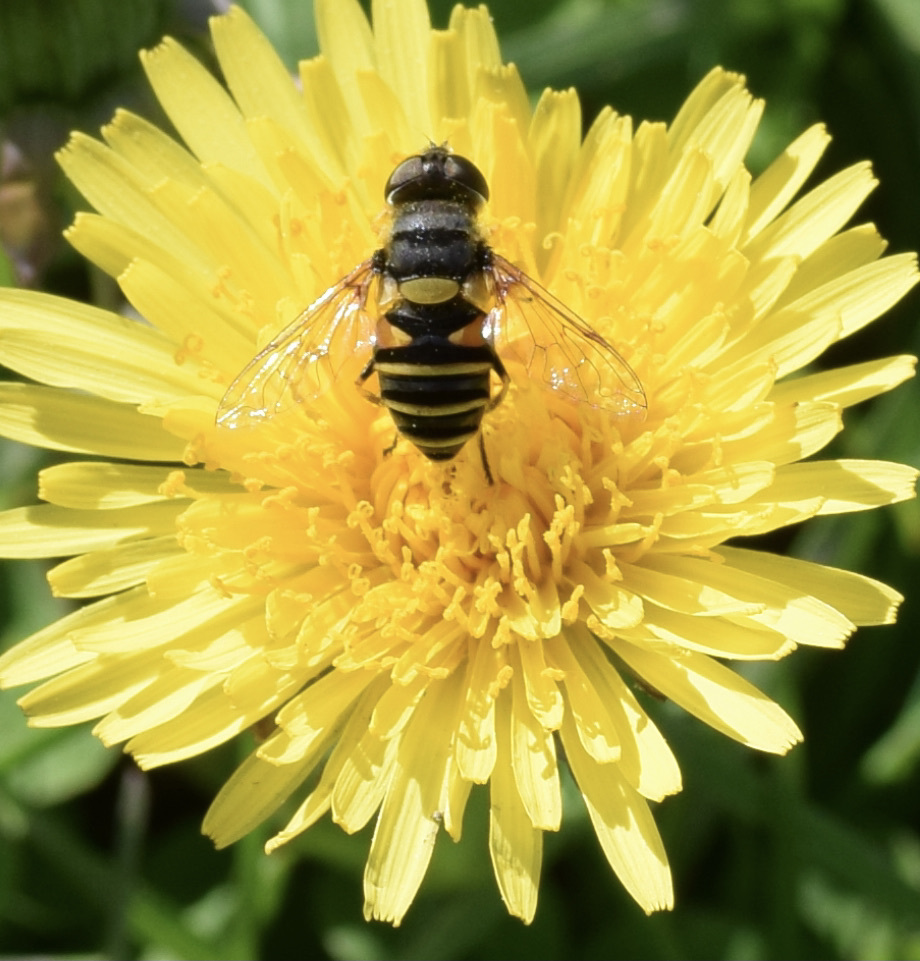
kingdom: Animalia
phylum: Arthropoda
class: Insecta
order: Diptera
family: Syrphidae
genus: Eristalis
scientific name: Eristalis transversa
